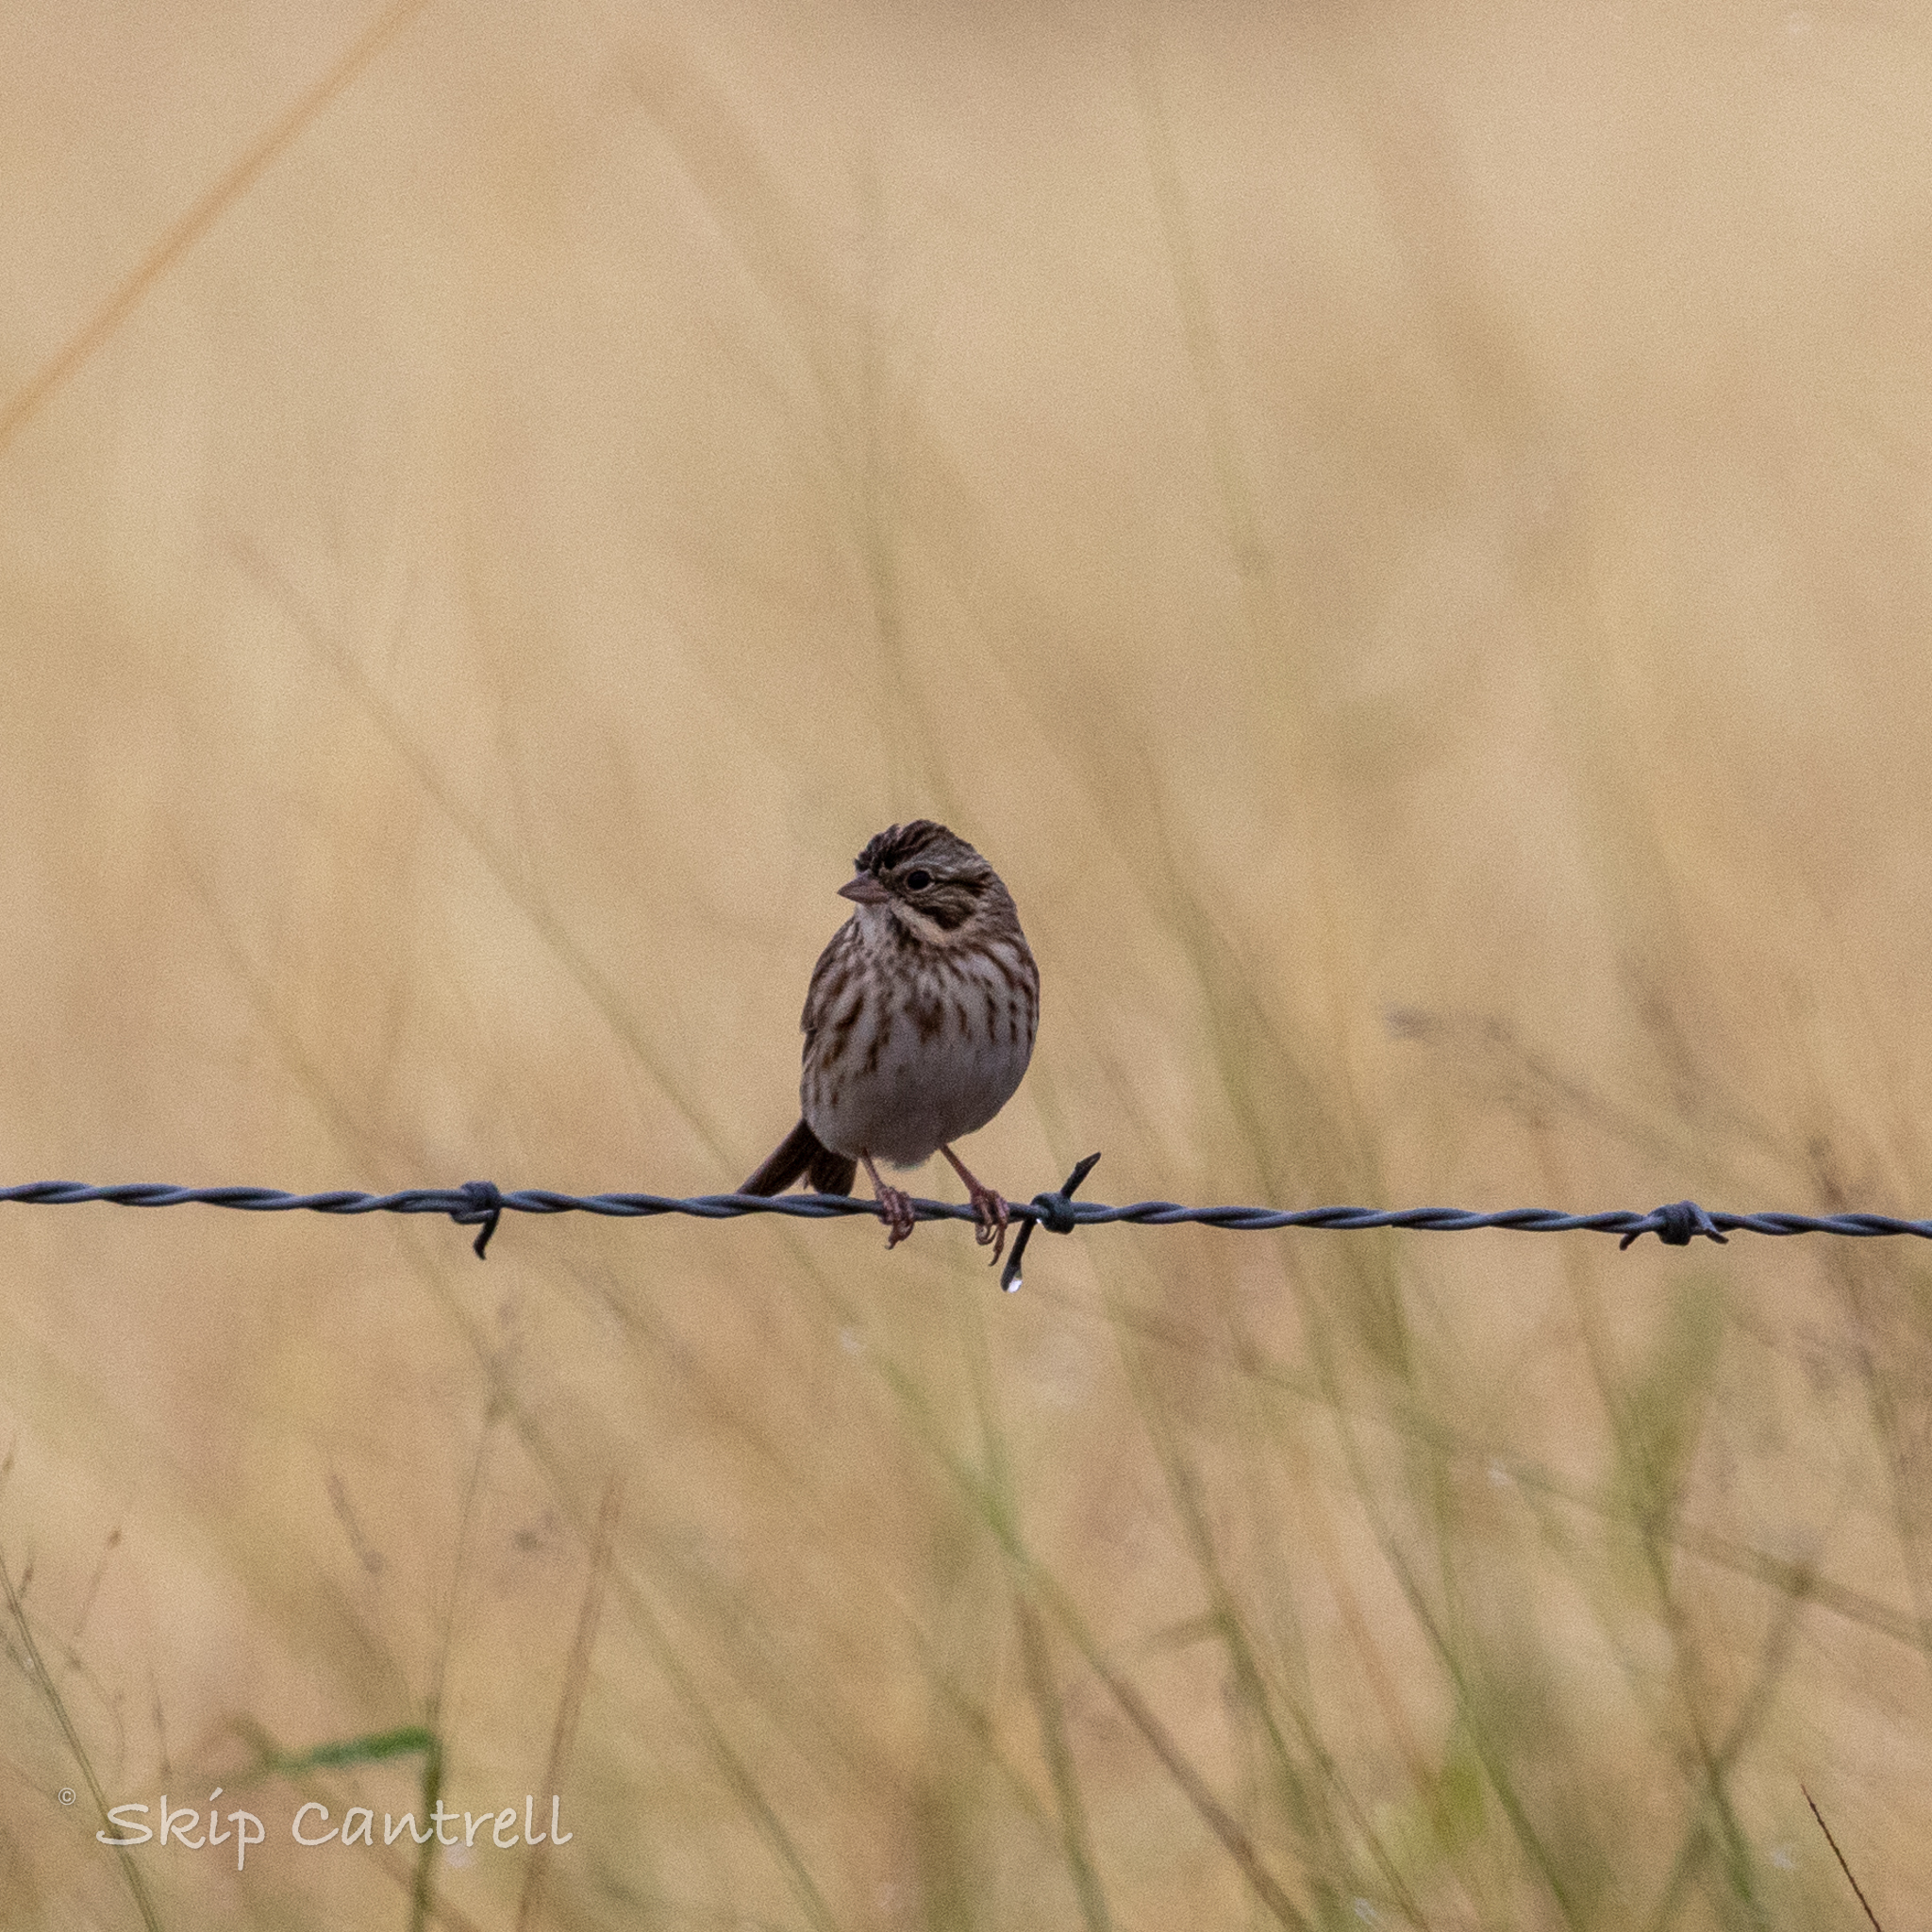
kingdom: Animalia
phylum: Chordata
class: Aves
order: Passeriformes
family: Passerellidae
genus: Passerculus
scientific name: Passerculus sandwichensis
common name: Savannah sparrow
